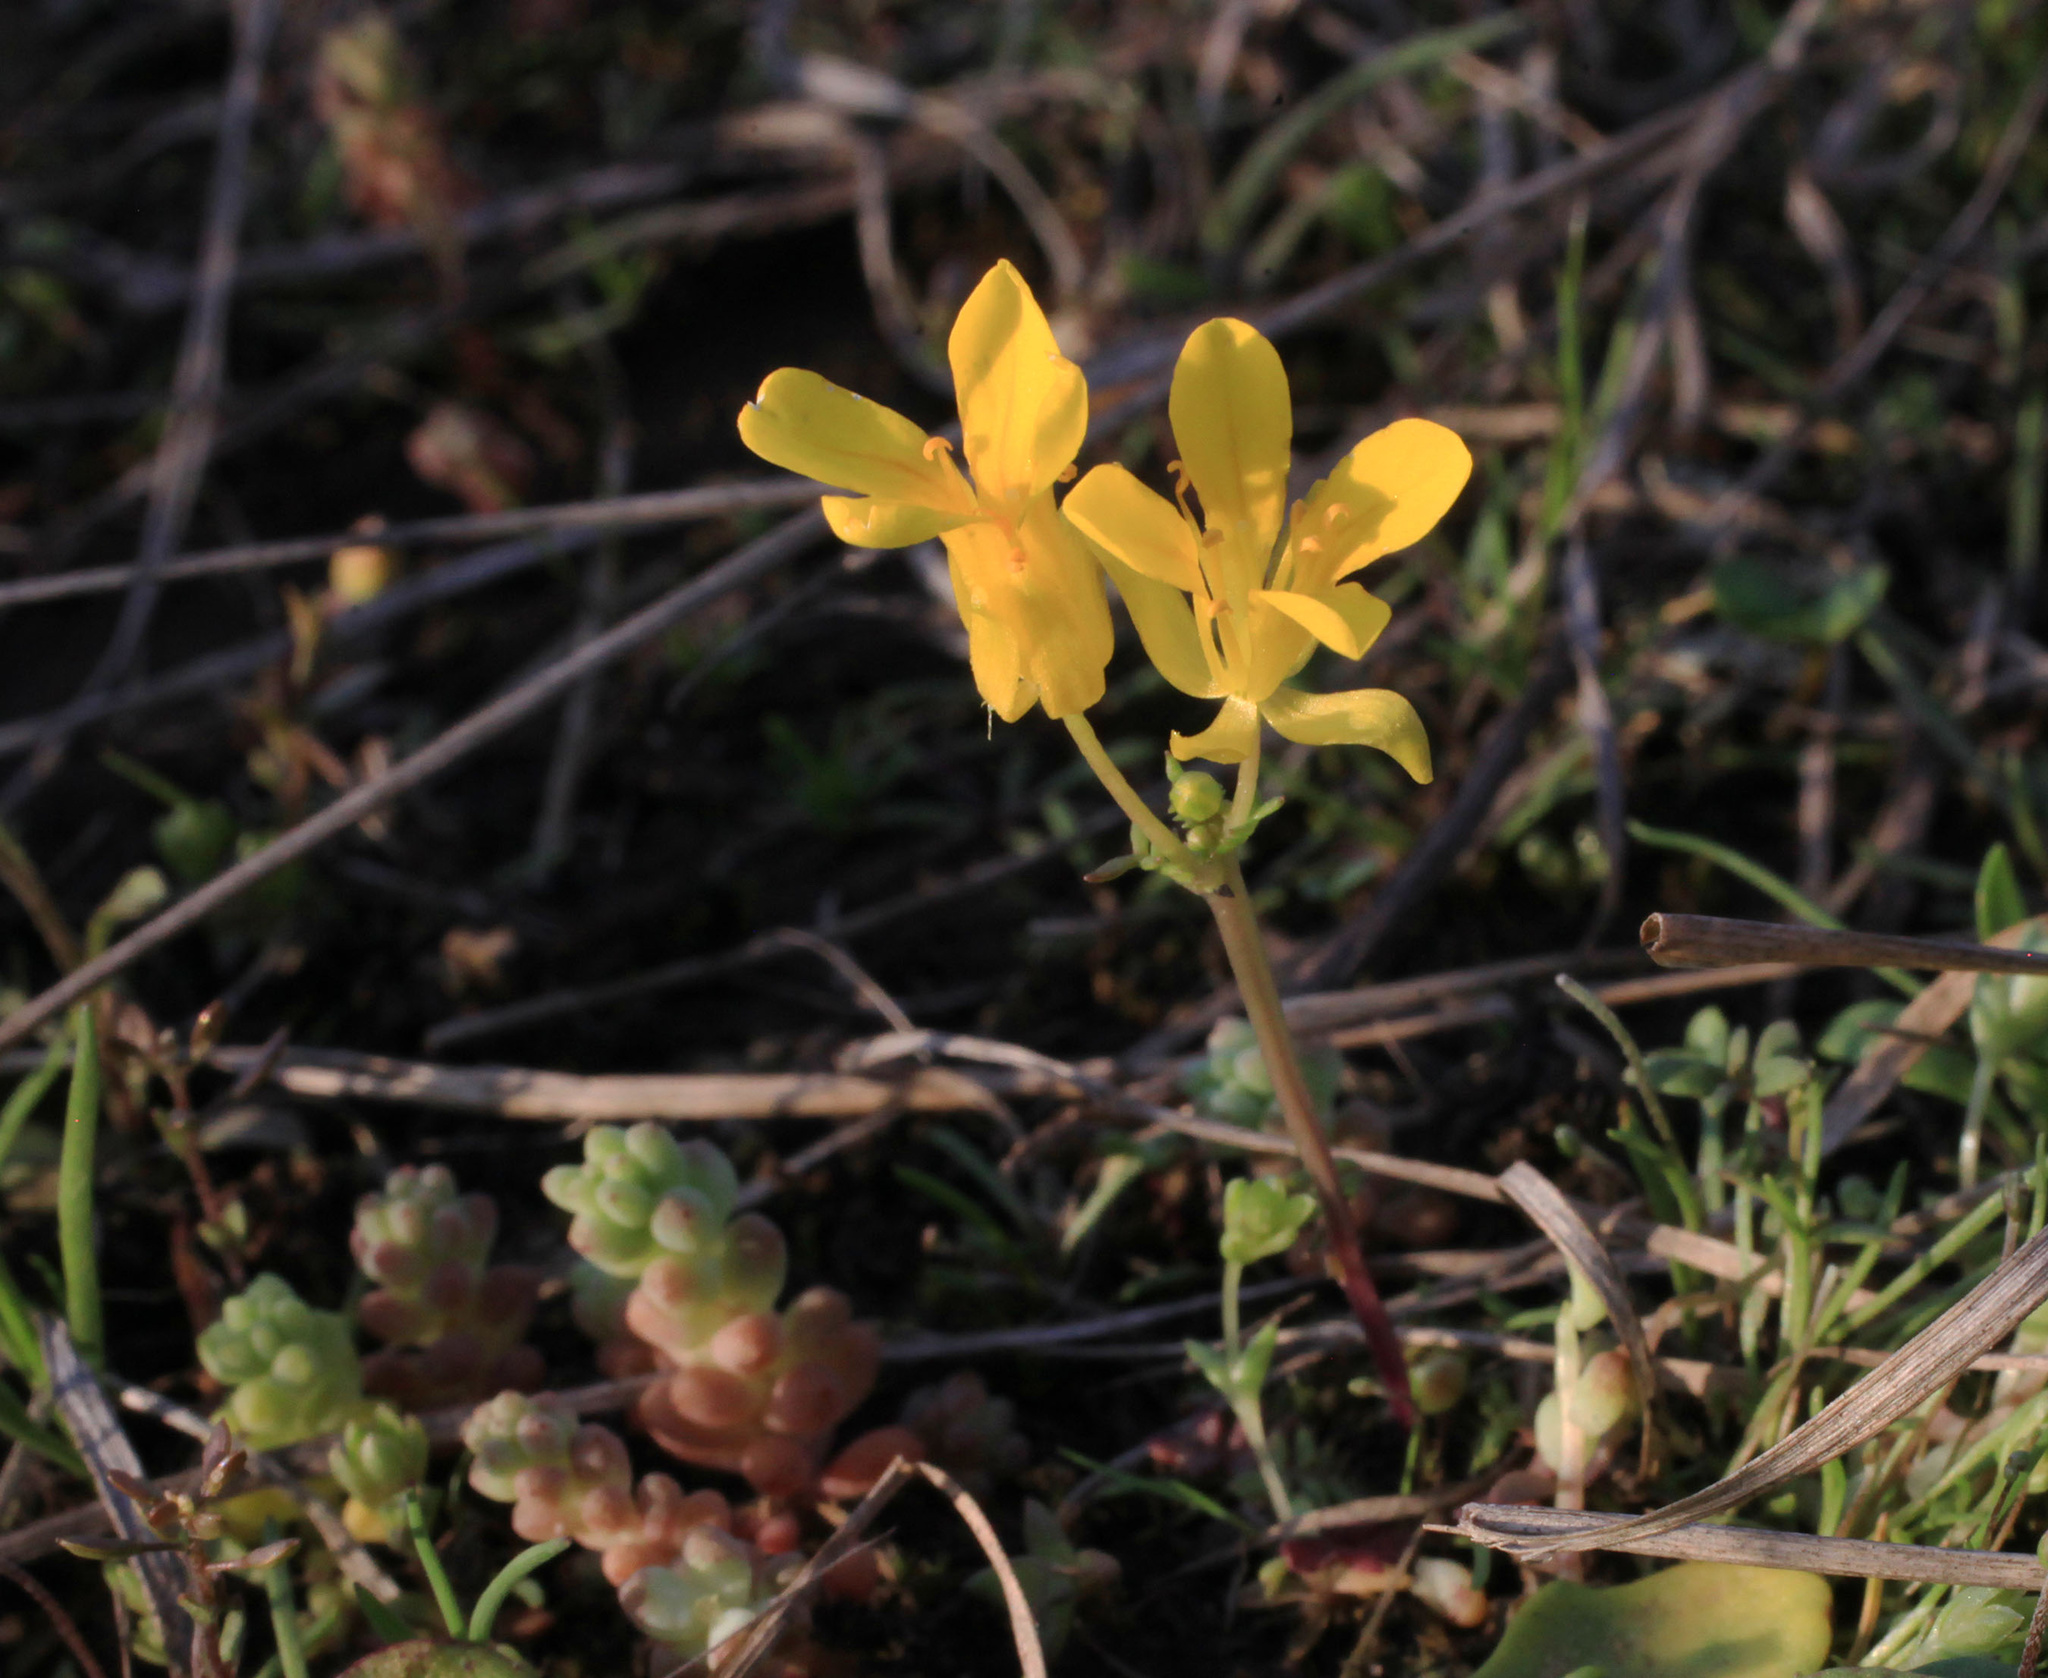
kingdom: Plantae
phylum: Tracheophyta
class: Magnoliopsida
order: Brassicales
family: Brassicaceae
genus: Selenia
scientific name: Selenia aurea
